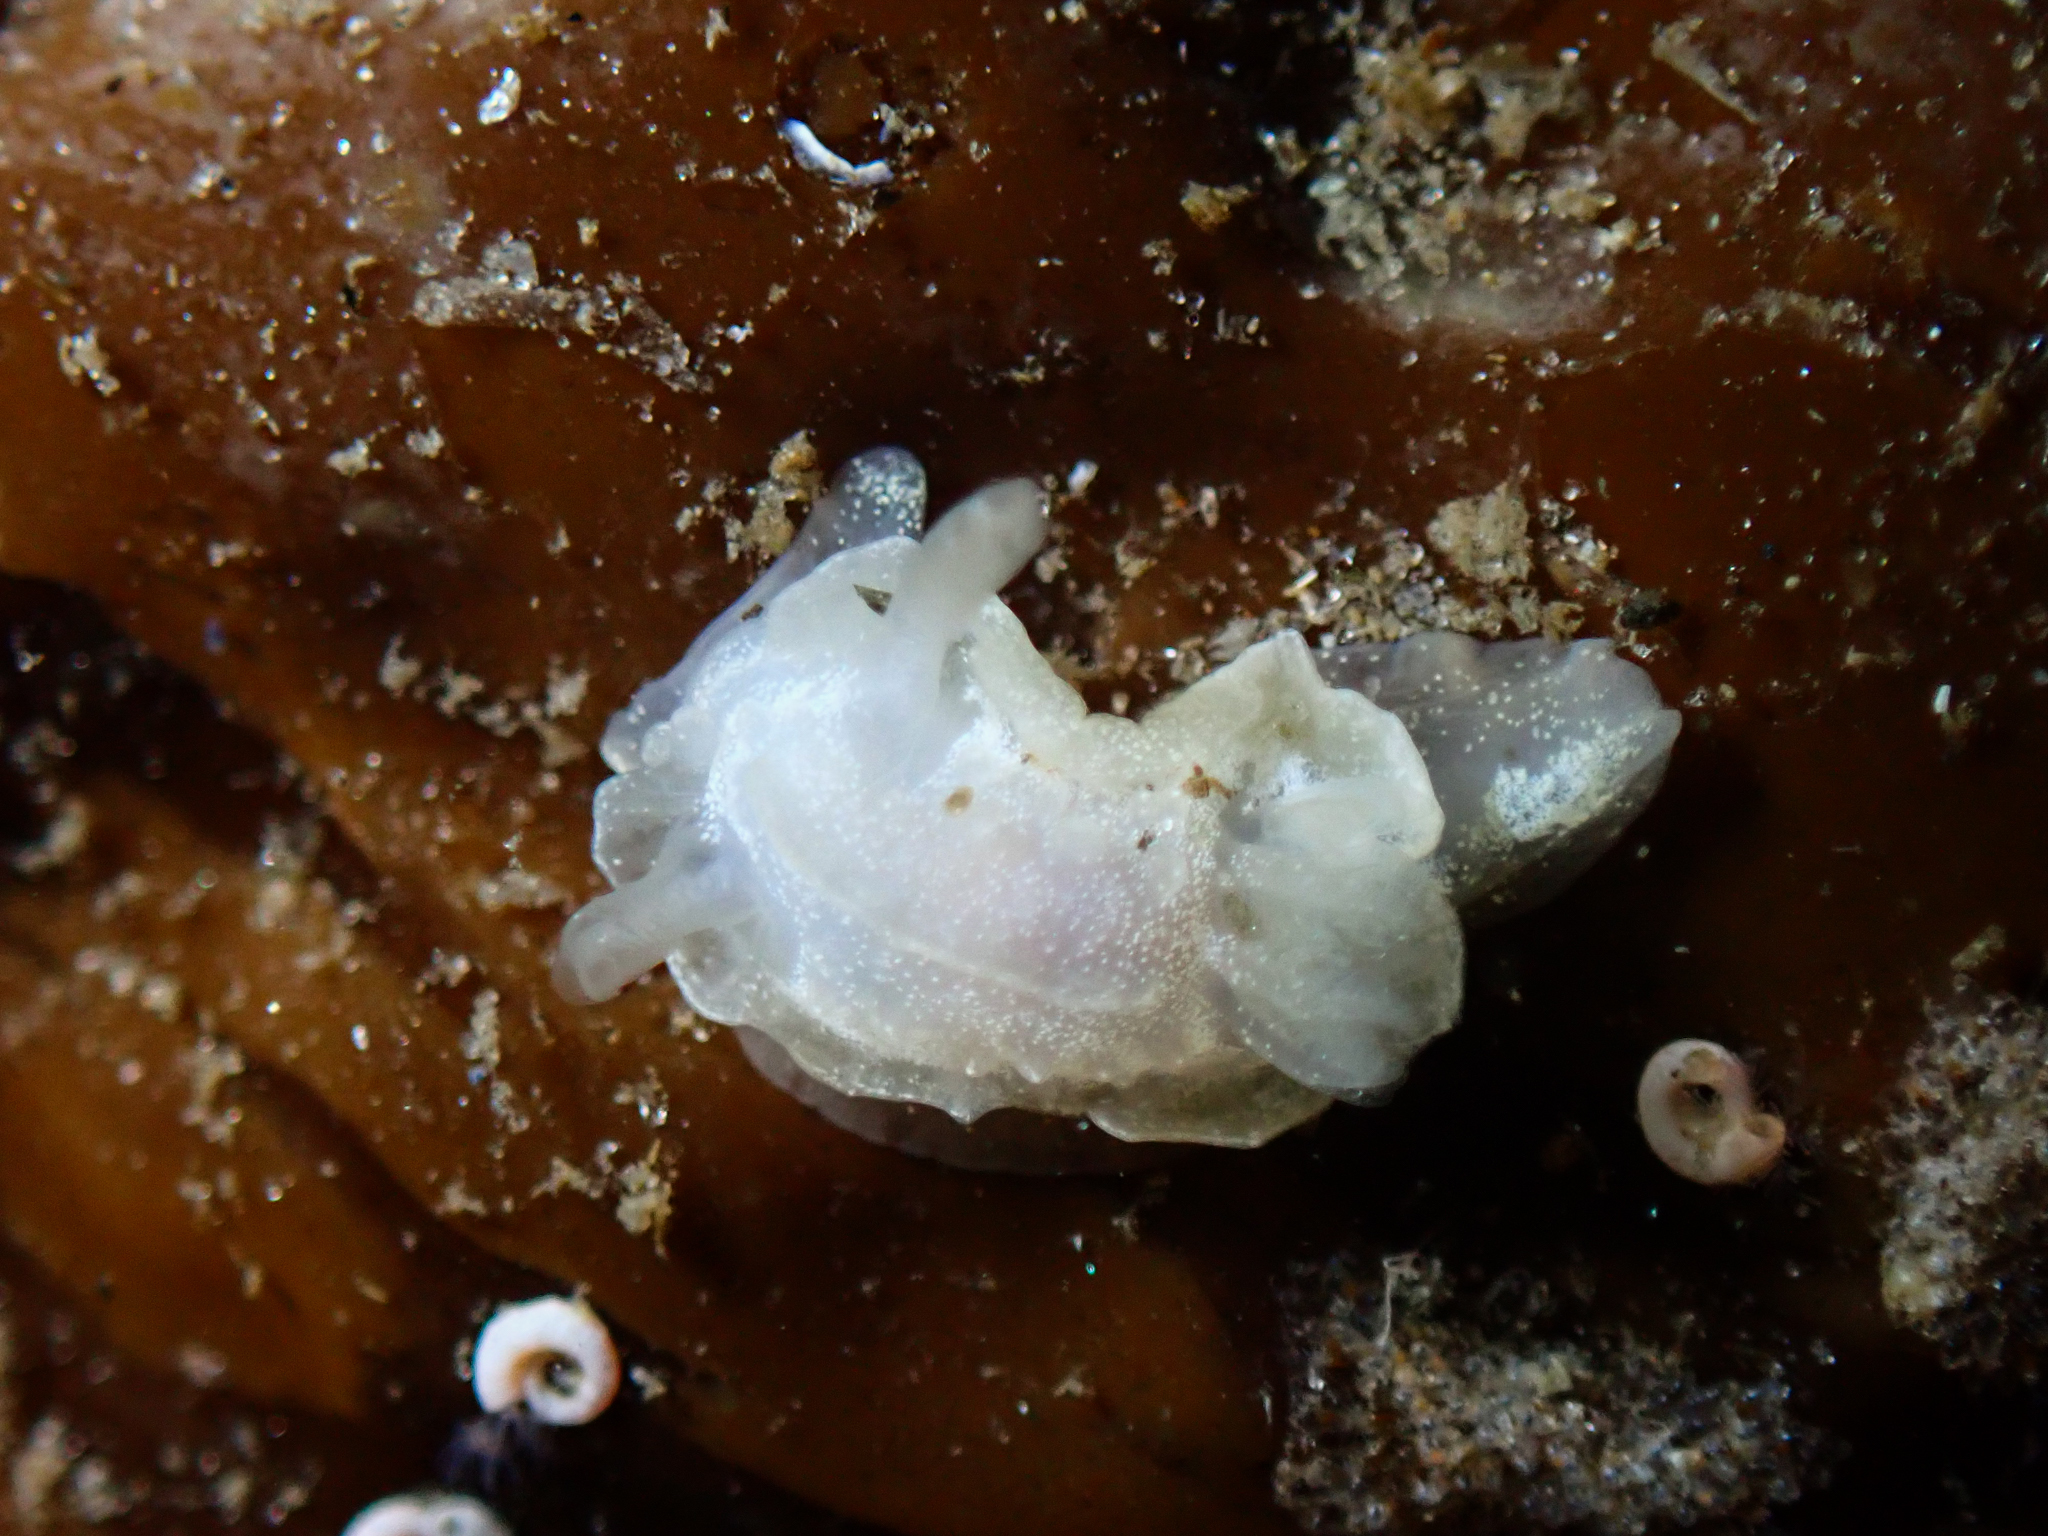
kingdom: Animalia
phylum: Mollusca
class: Gastropoda
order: Nudibranchia
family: Goniodorididae
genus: Okenia
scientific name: Okenia
